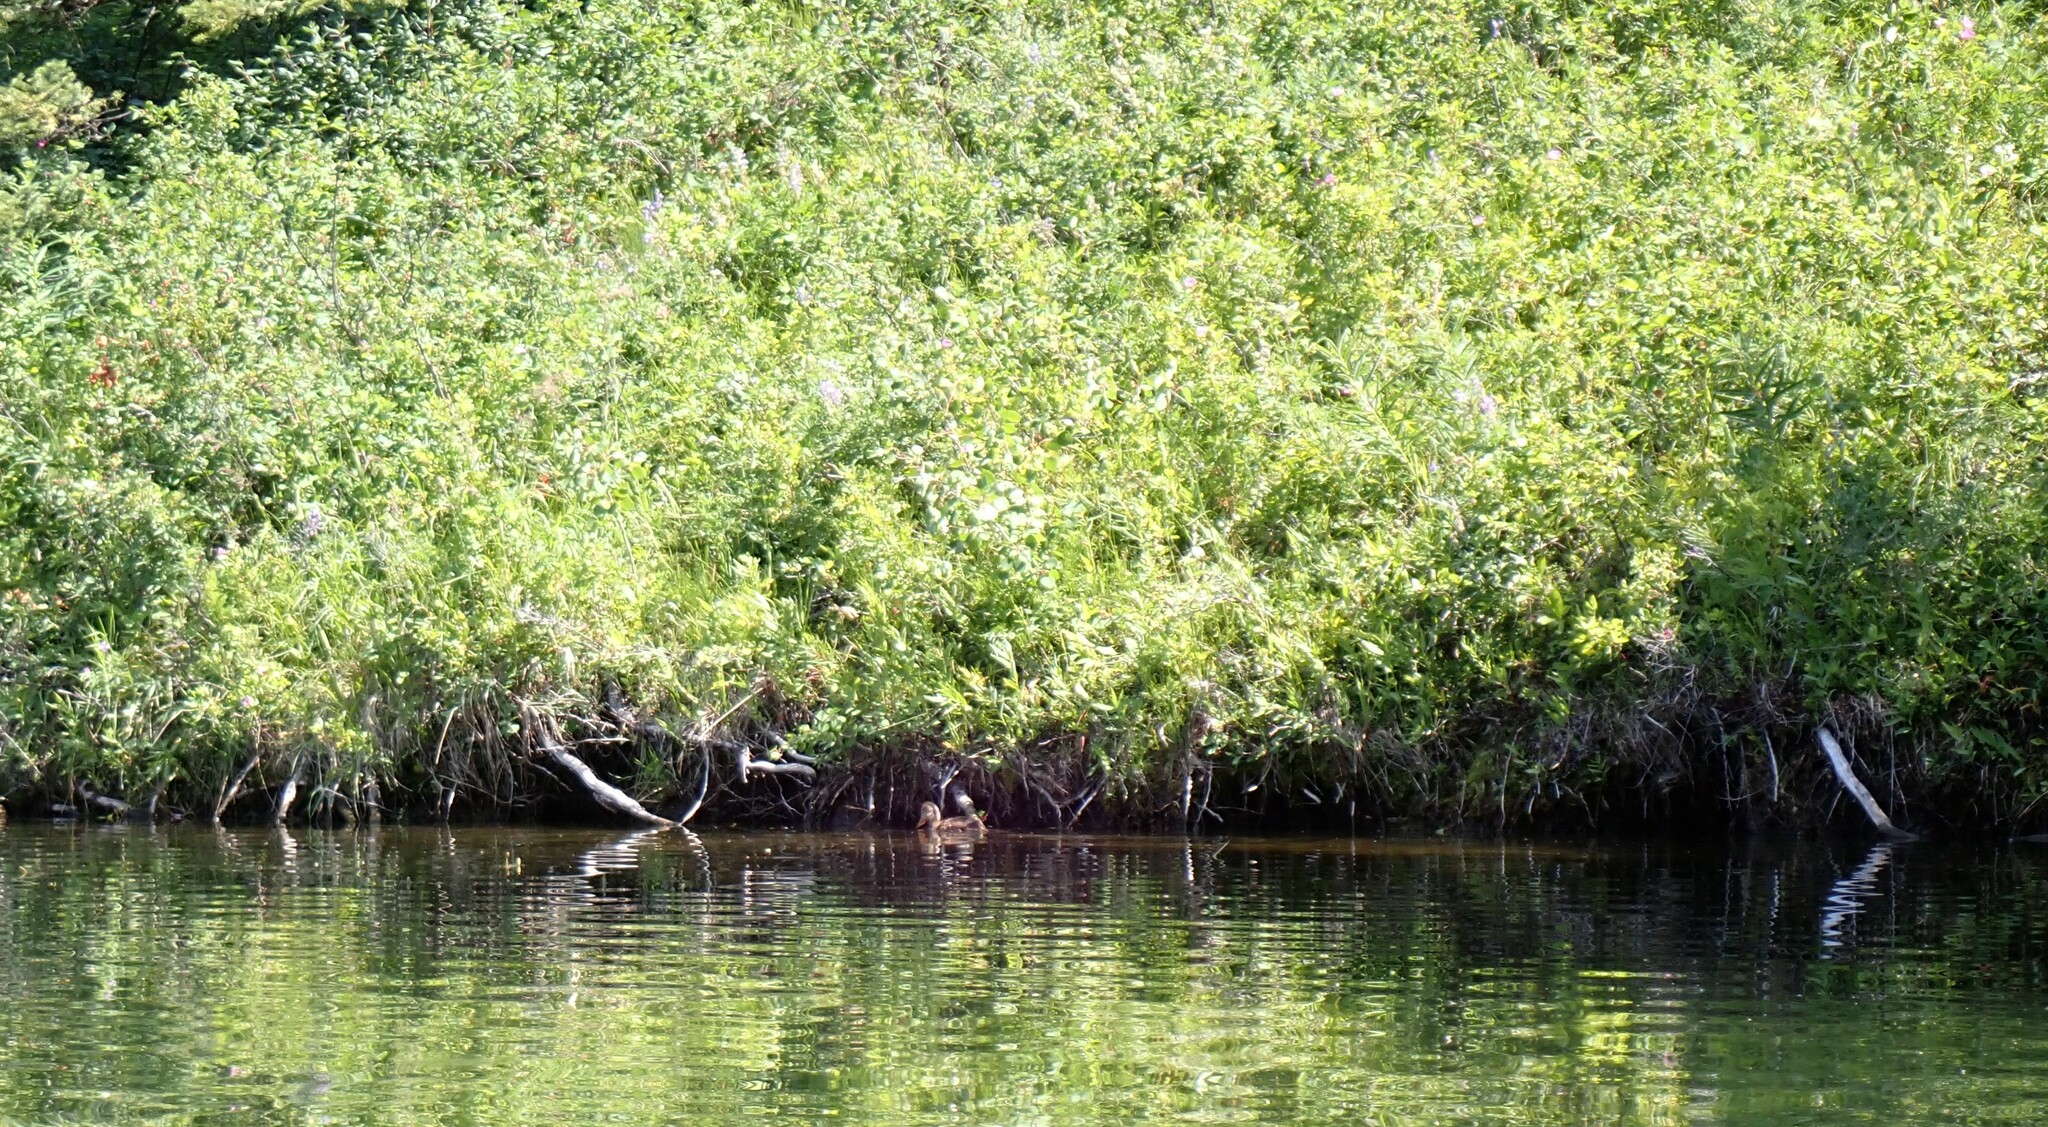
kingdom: Animalia
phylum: Chordata
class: Aves
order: Anseriformes
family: Anatidae
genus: Anas
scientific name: Anas platyrhynchos
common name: Mallard
